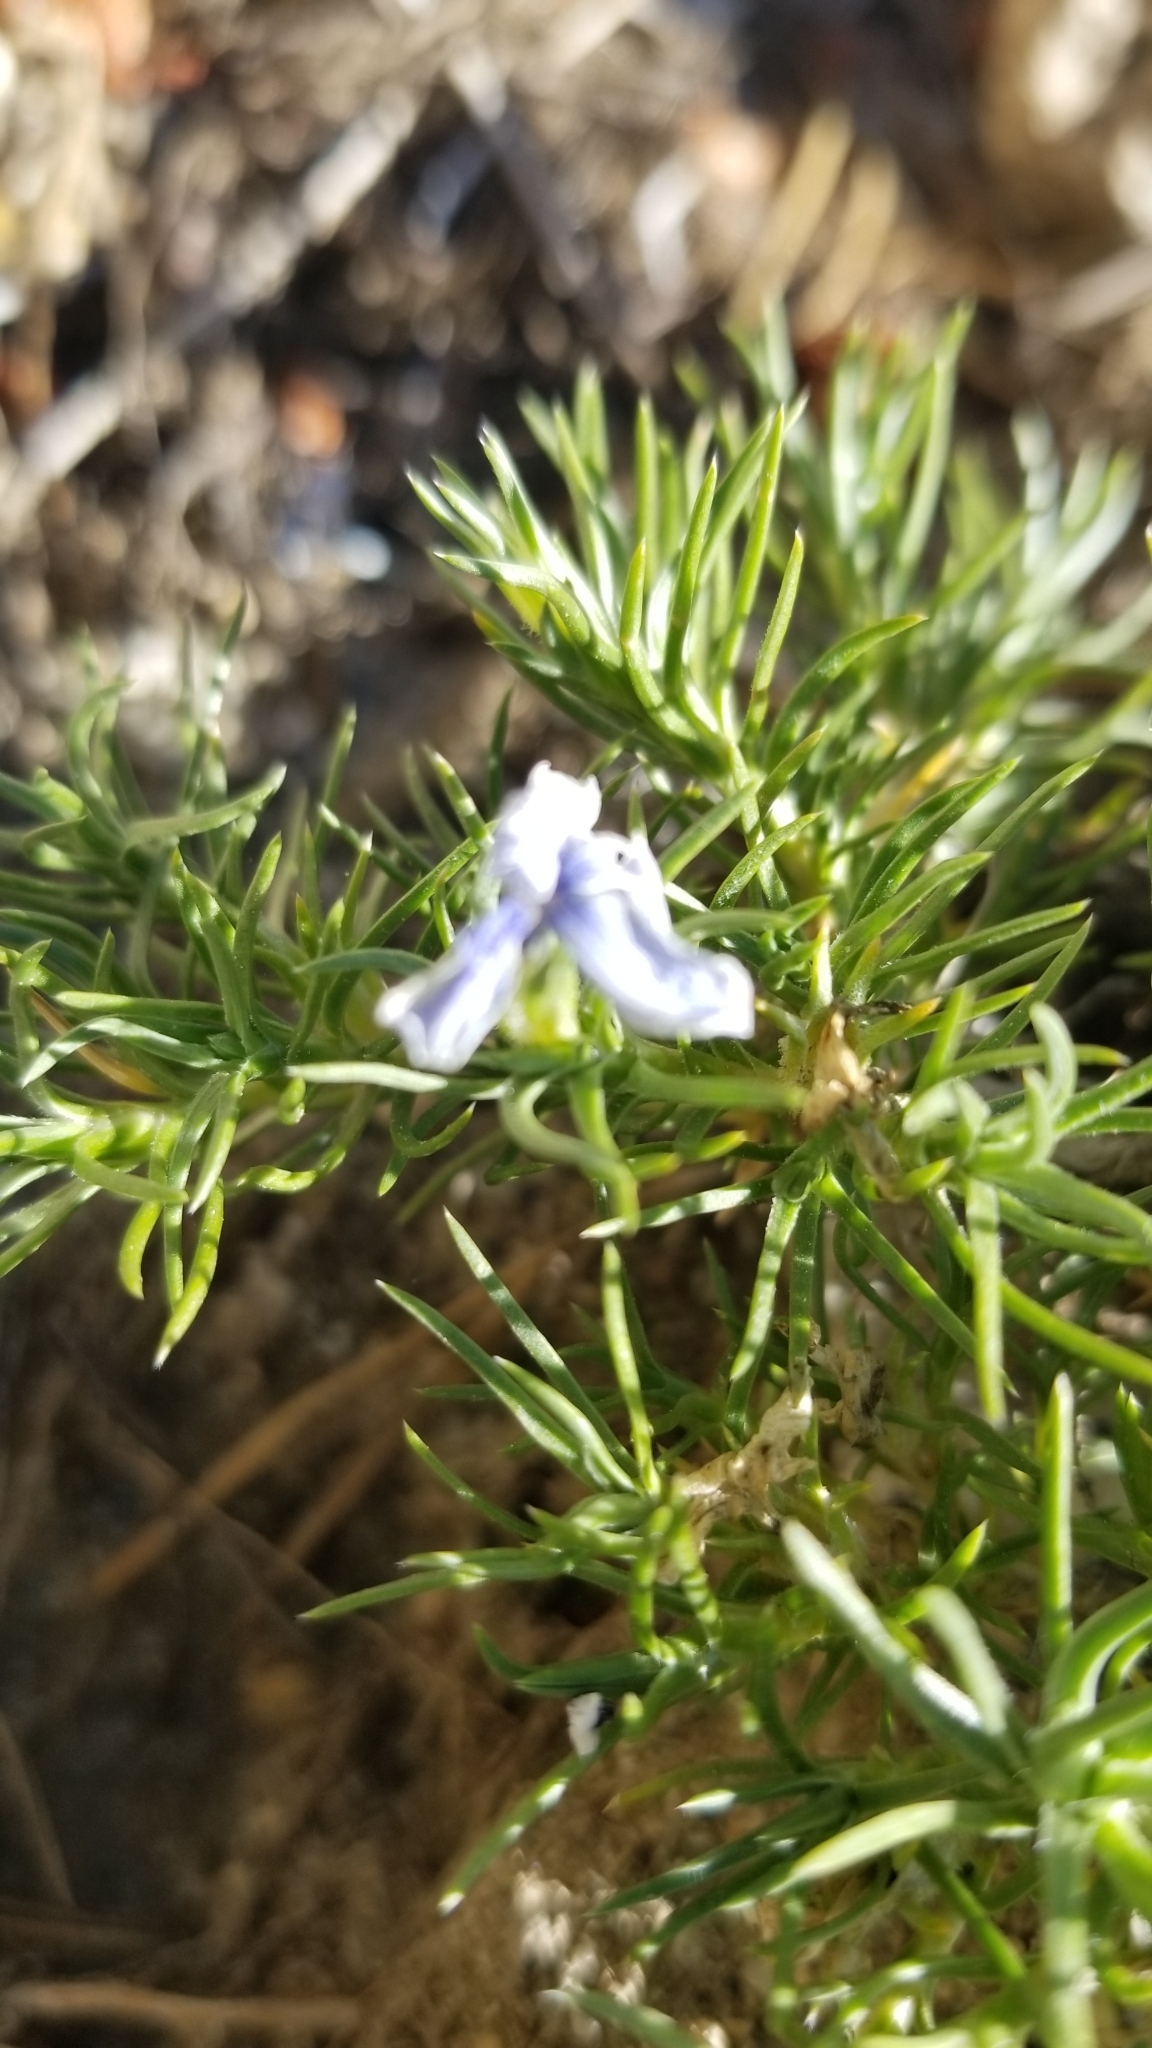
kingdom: Plantae
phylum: Tracheophyta
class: Magnoliopsida
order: Ericales
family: Polemoniaceae
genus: Phlox
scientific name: Phlox diffusa
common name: Mat phlox
